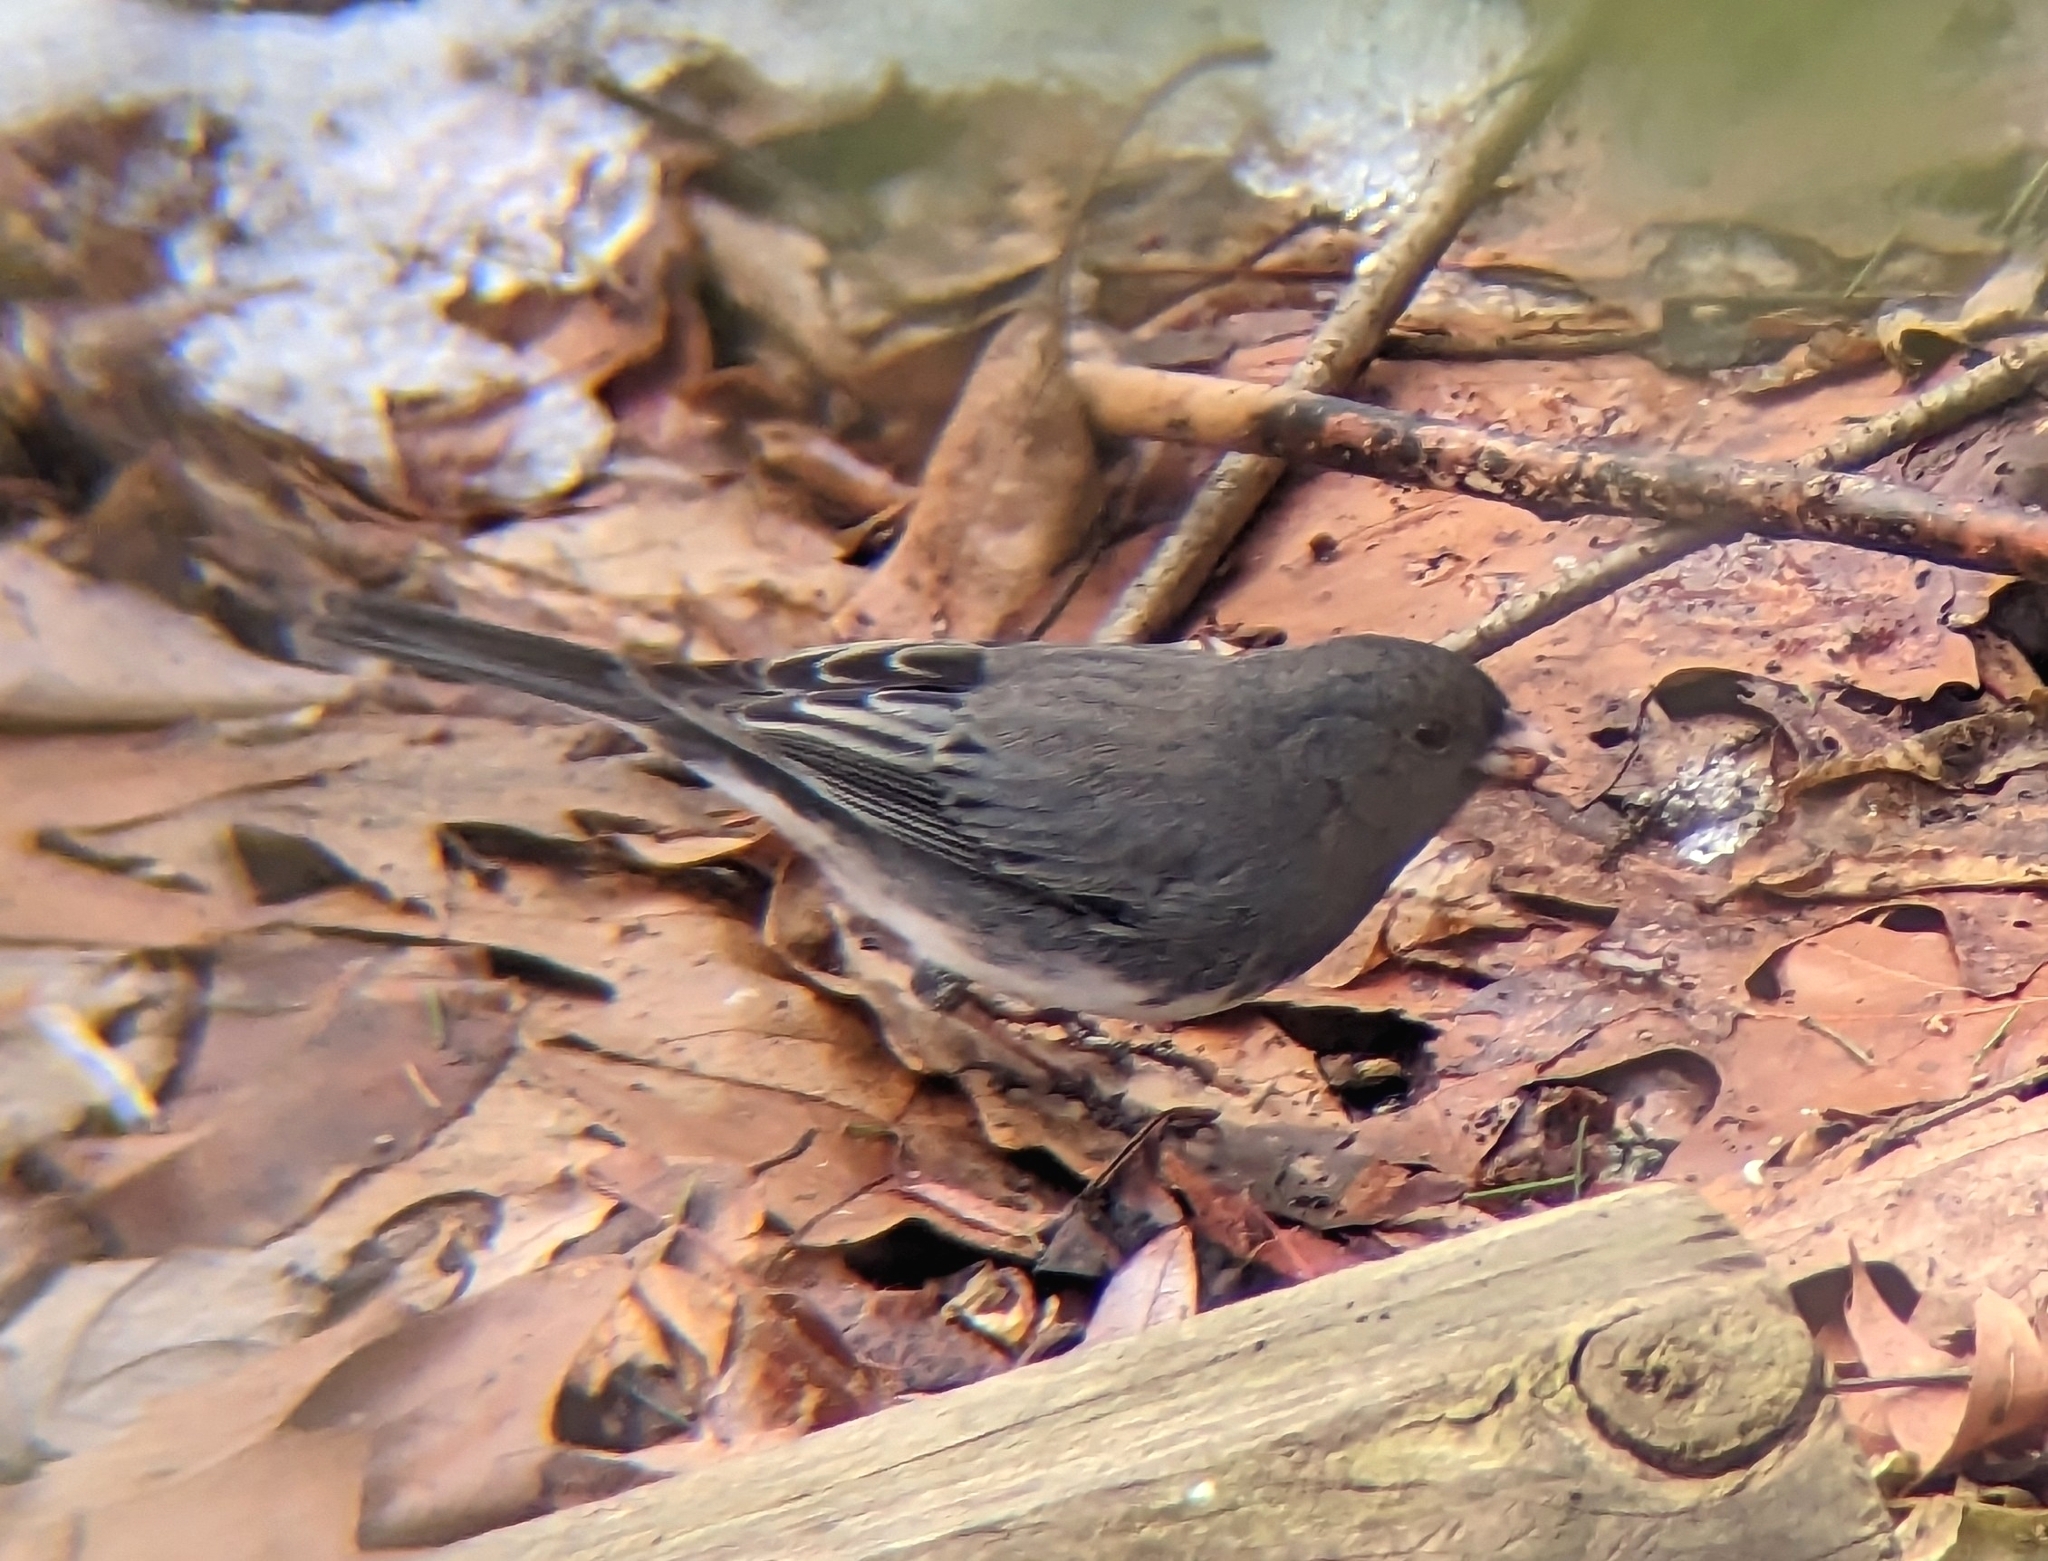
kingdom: Animalia
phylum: Chordata
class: Aves
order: Passeriformes
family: Passerellidae
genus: Junco
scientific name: Junco hyemalis
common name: Dark-eyed junco
